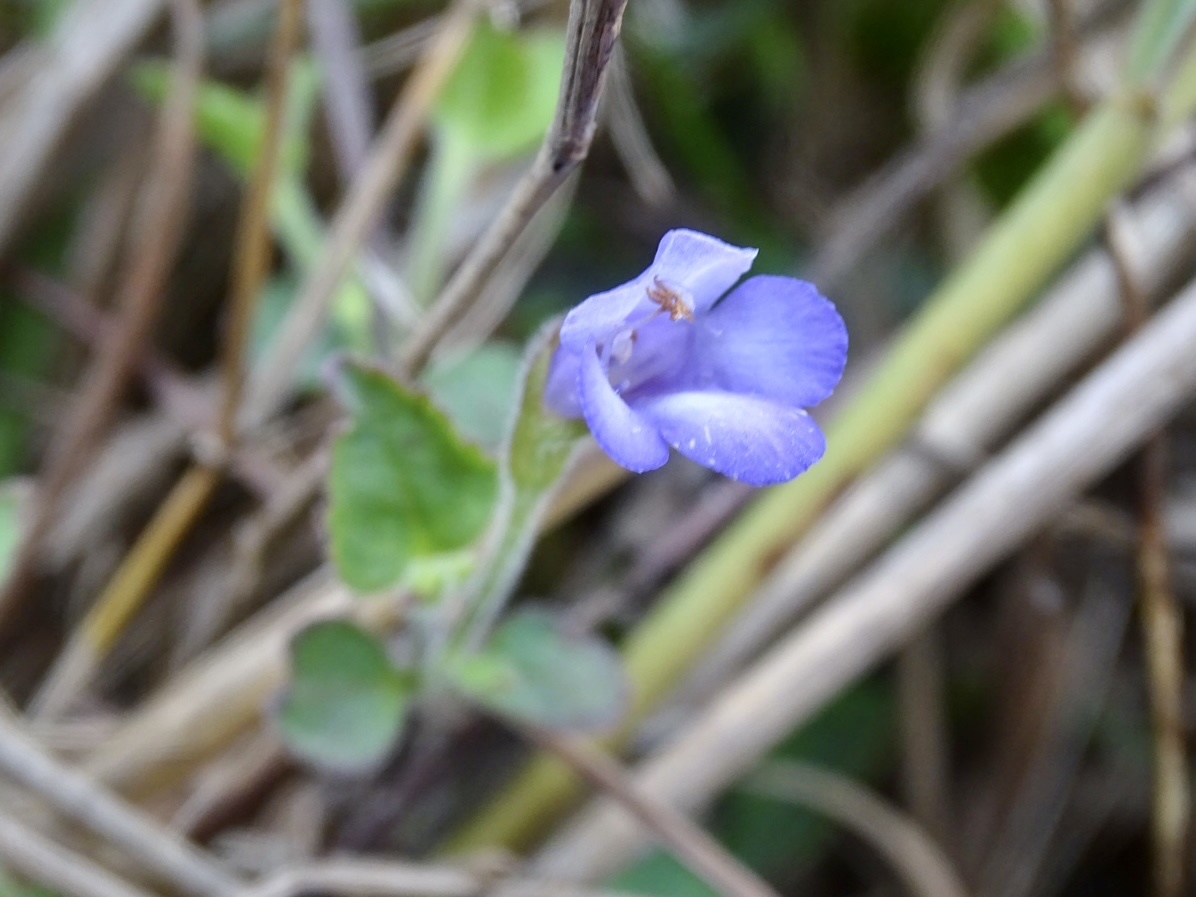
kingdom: Plantae
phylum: Tracheophyta
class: Magnoliopsida
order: Lamiales
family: Linderniaceae
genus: Torenia
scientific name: Torenia benthamiana
